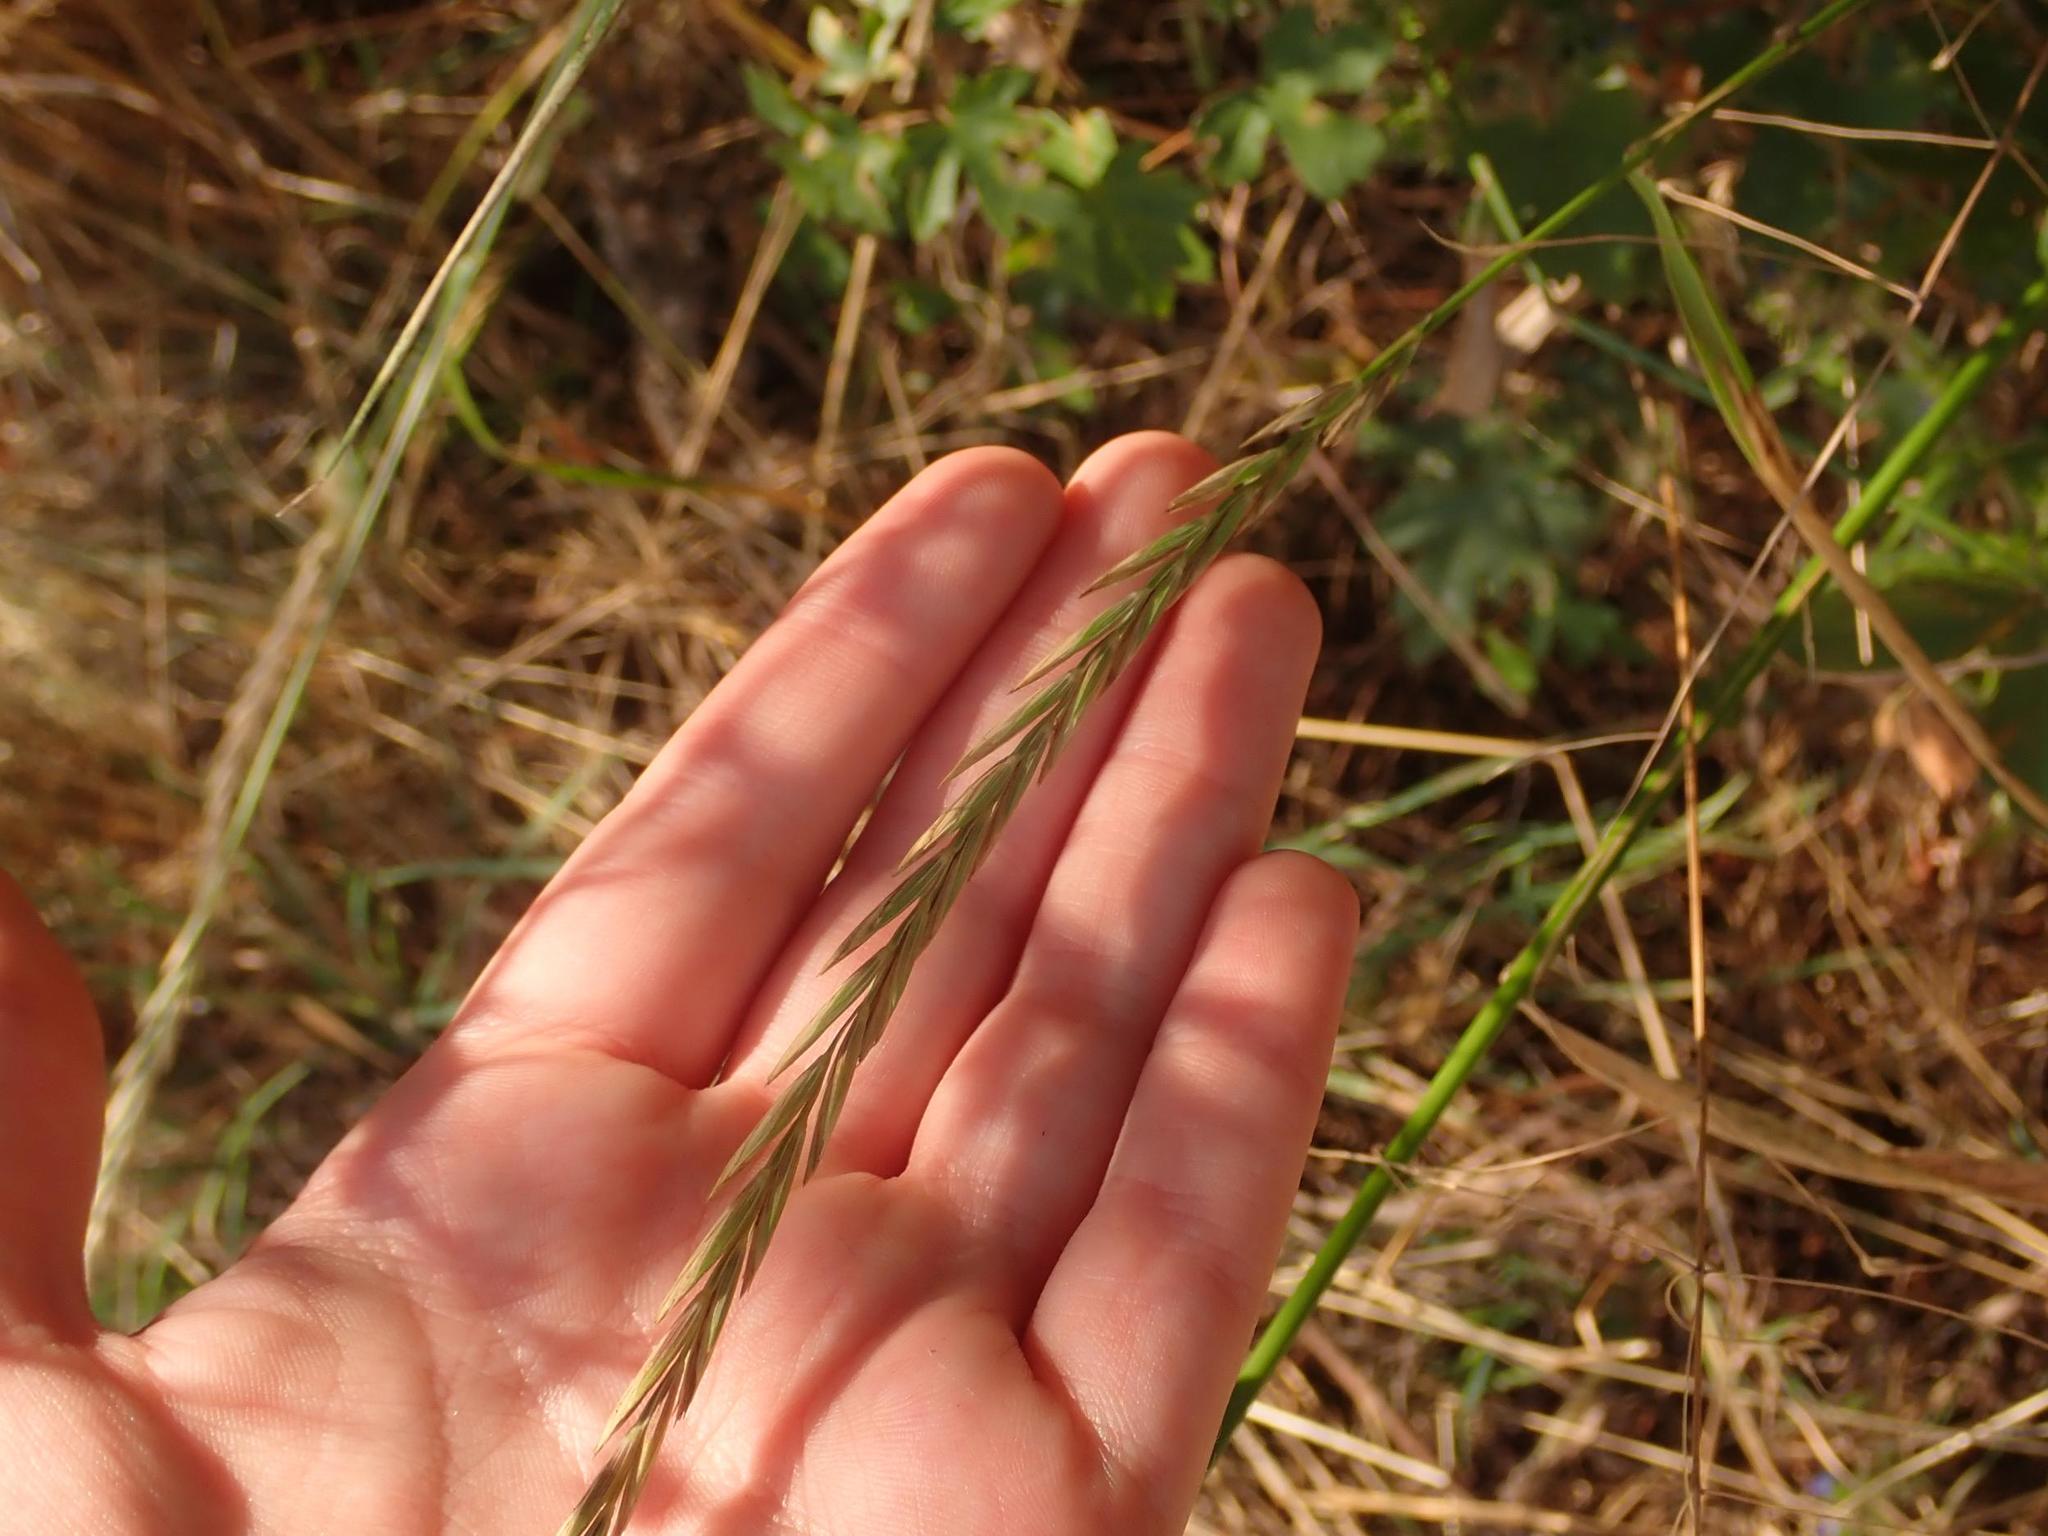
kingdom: Plantae
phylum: Tracheophyta
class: Liliopsida
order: Poales
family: Poaceae
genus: Elymus
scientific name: Elymus repens
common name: Quackgrass
